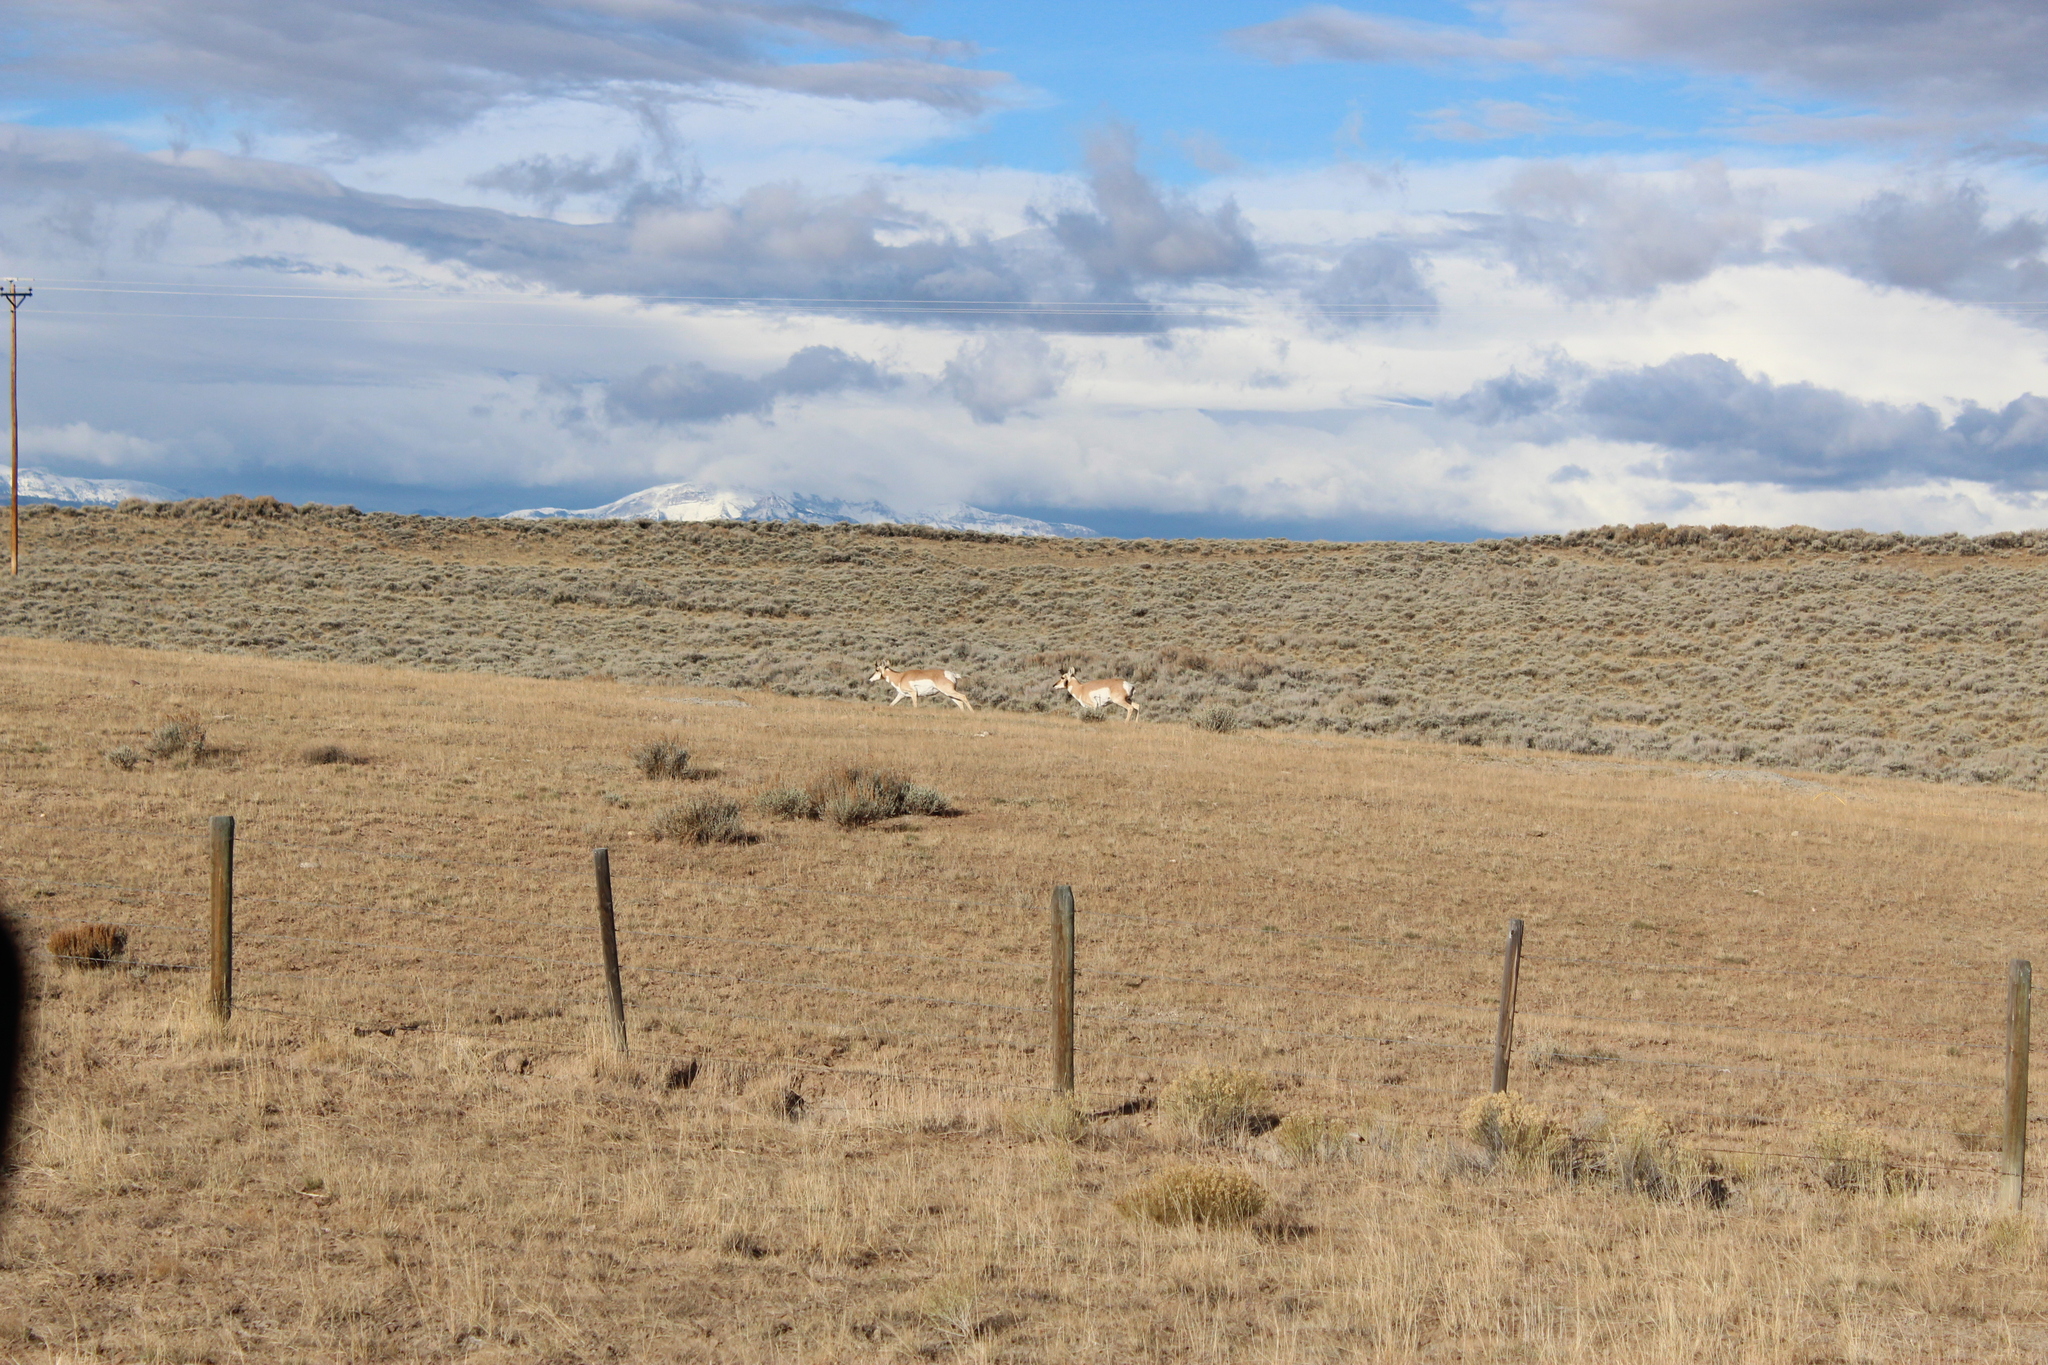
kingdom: Animalia
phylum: Chordata
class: Mammalia
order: Artiodactyla
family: Antilocapridae
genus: Antilocapra
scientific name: Antilocapra americana
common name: Pronghorn
